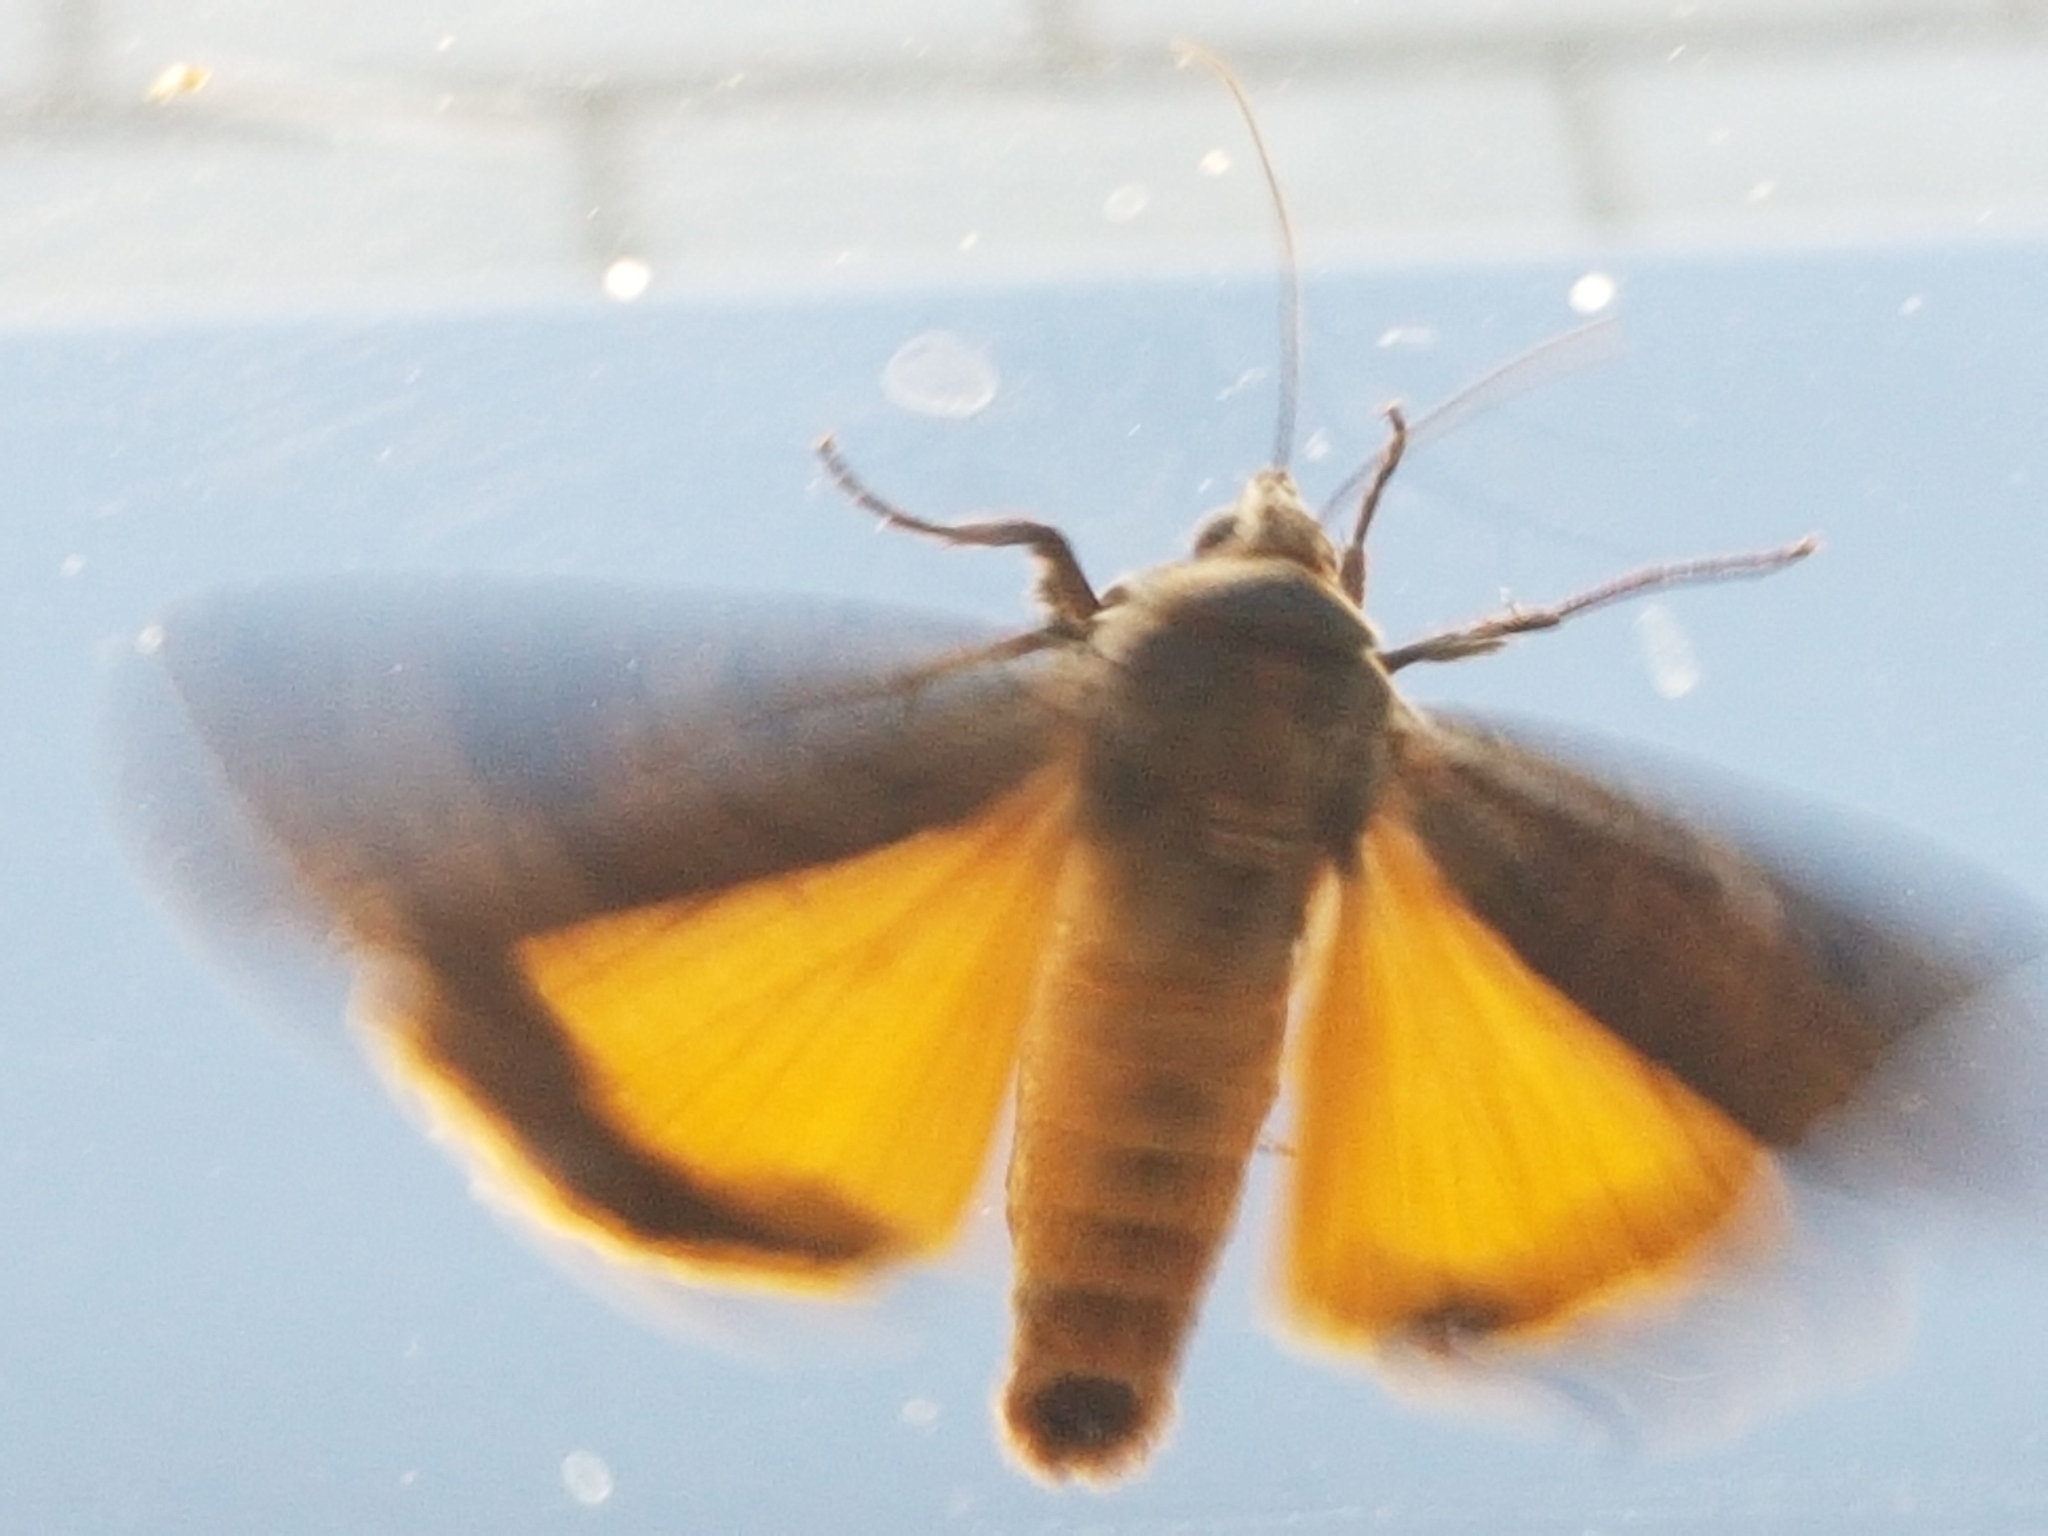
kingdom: Animalia
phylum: Arthropoda
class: Insecta
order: Lepidoptera
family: Noctuidae
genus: Noctua
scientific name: Noctua pronuba
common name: Large yellow underwing
